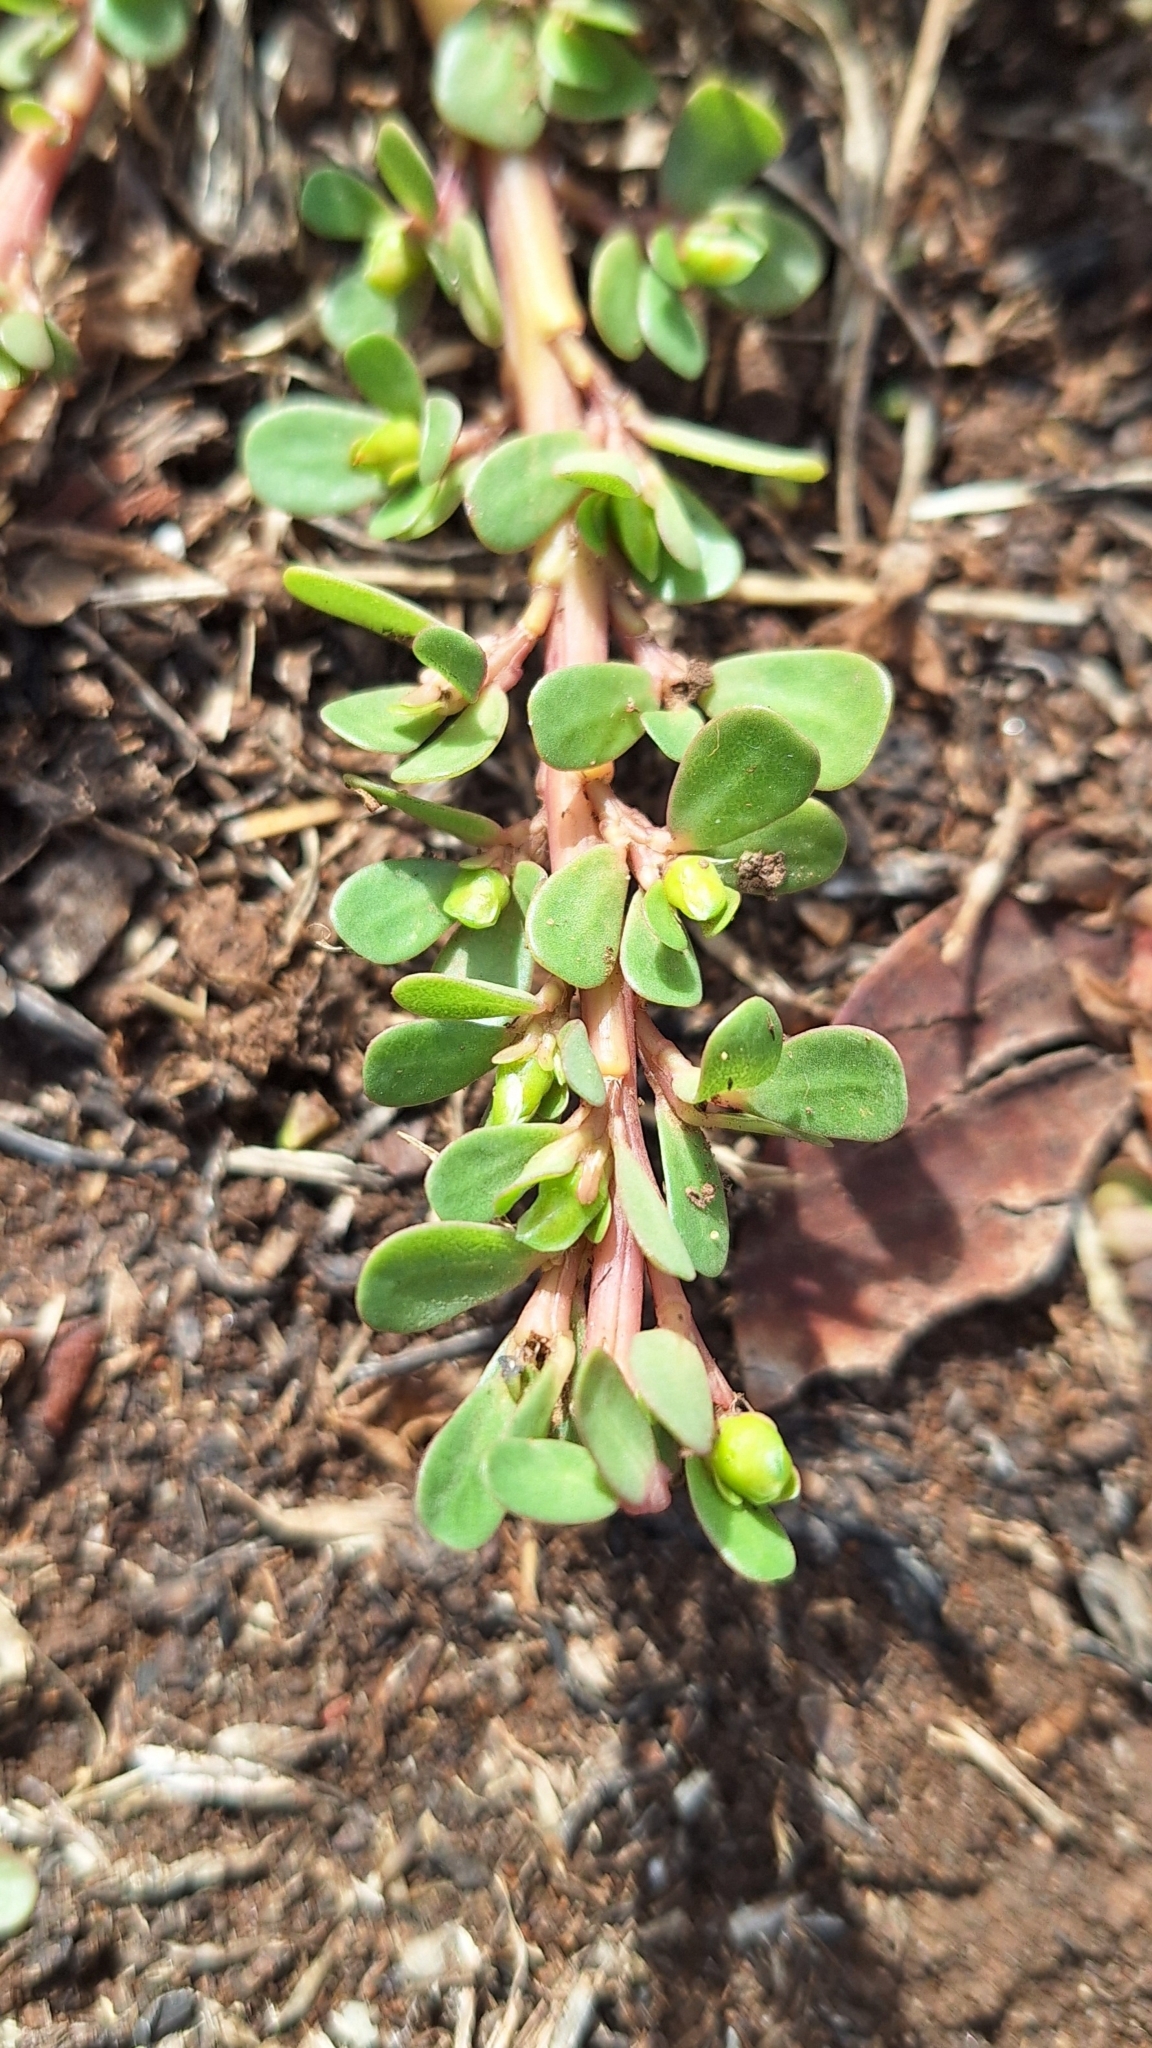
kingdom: Plantae
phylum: Tracheophyta
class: Magnoliopsida
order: Caryophyllales
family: Portulacaceae
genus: Portulaca
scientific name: Portulaca oleracea
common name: Common purslane
